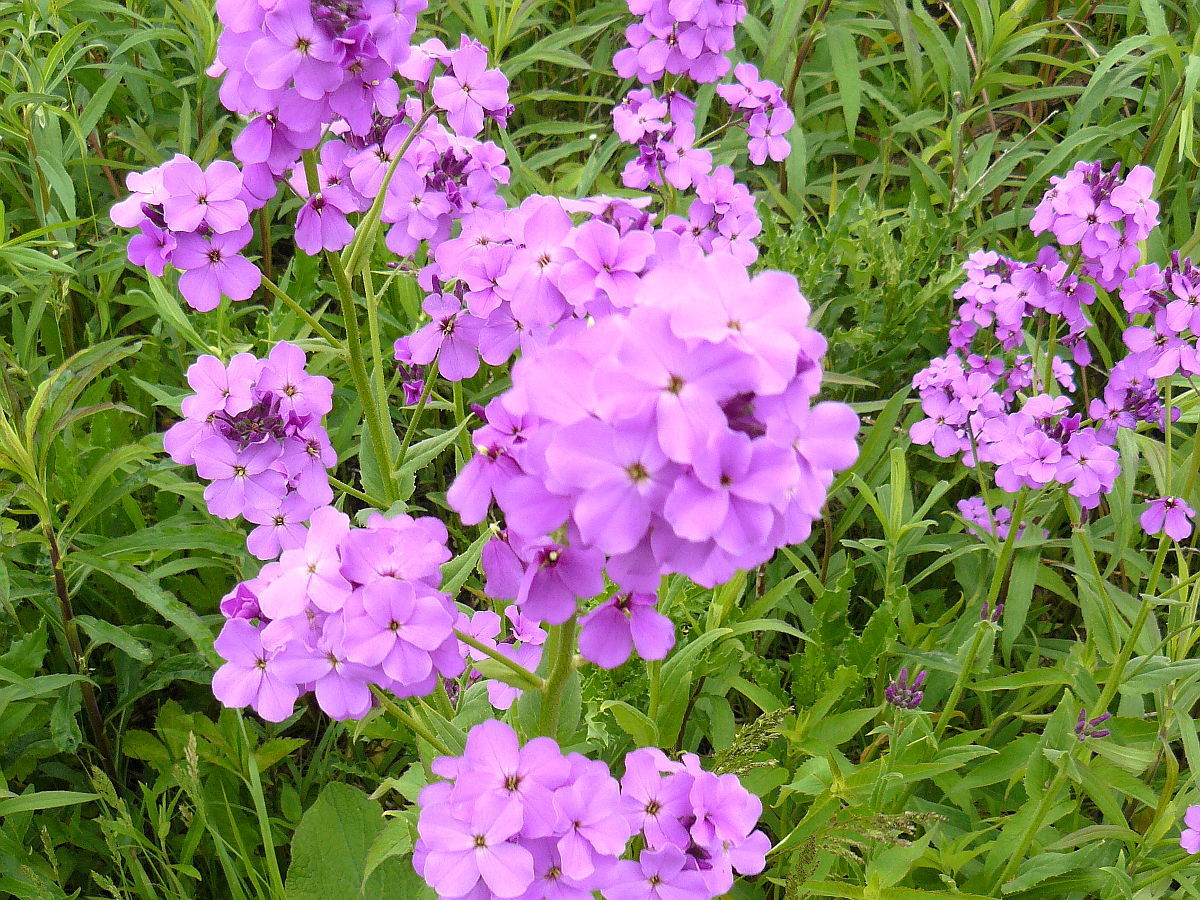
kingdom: Plantae
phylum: Tracheophyta
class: Magnoliopsida
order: Brassicales
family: Brassicaceae
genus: Hesperis
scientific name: Hesperis matronalis
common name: Dame's-violet
